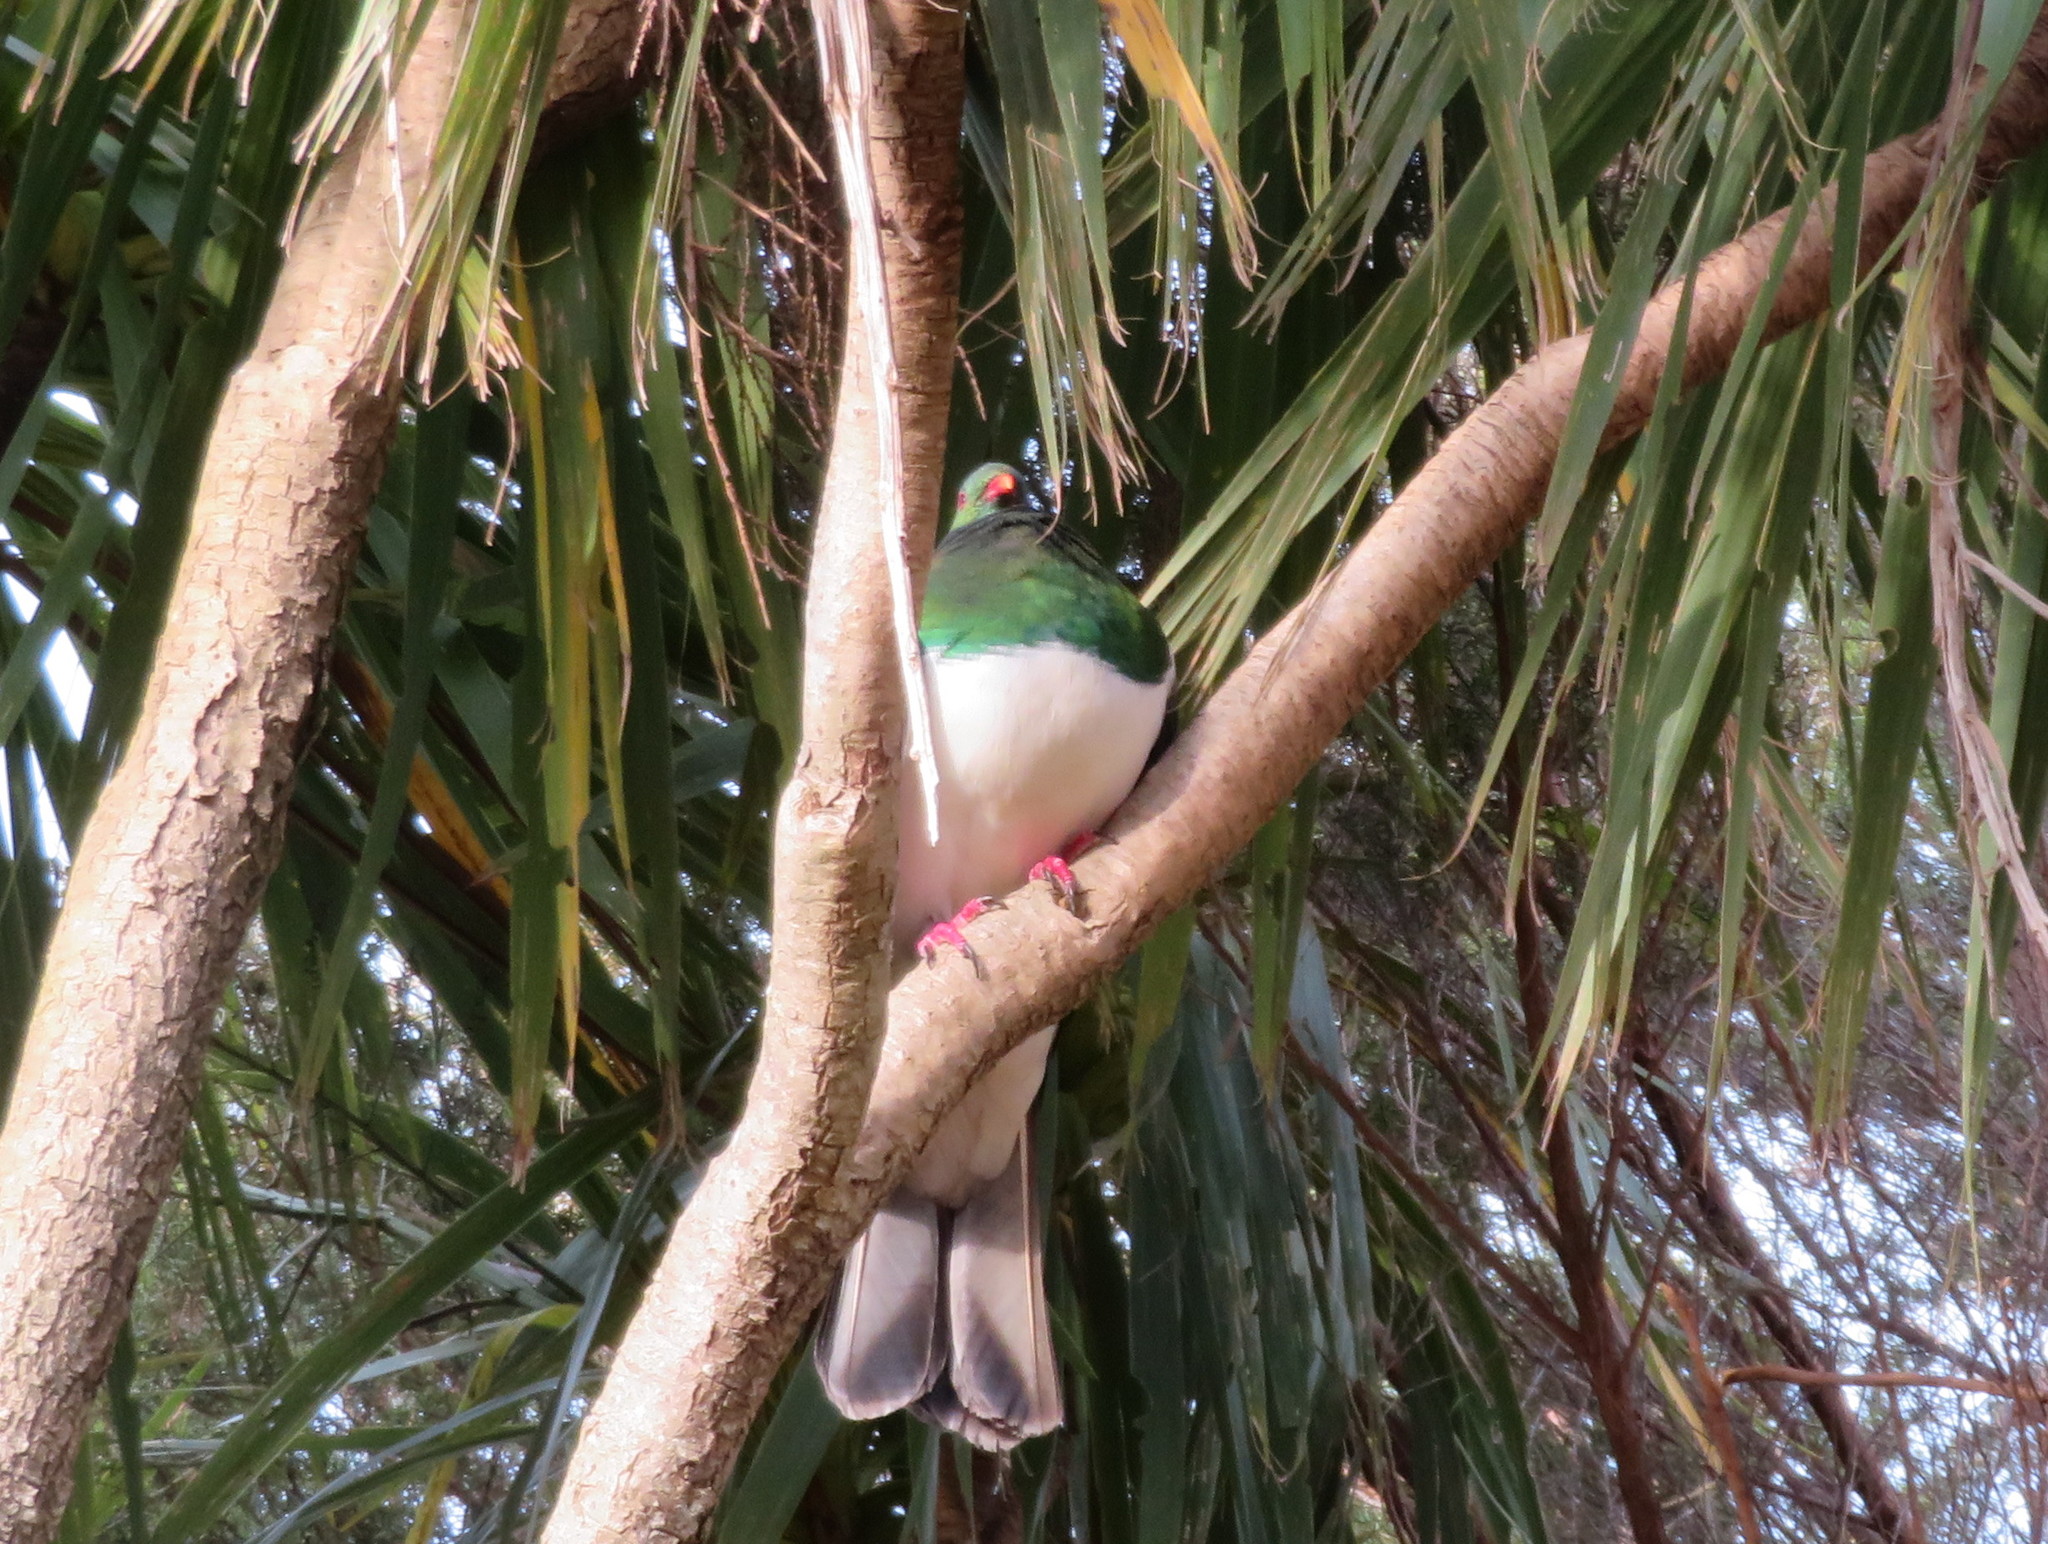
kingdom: Animalia
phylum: Chordata
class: Aves
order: Columbiformes
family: Columbidae
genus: Hemiphaga
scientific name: Hemiphaga novaeseelandiae
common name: New zealand pigeon
